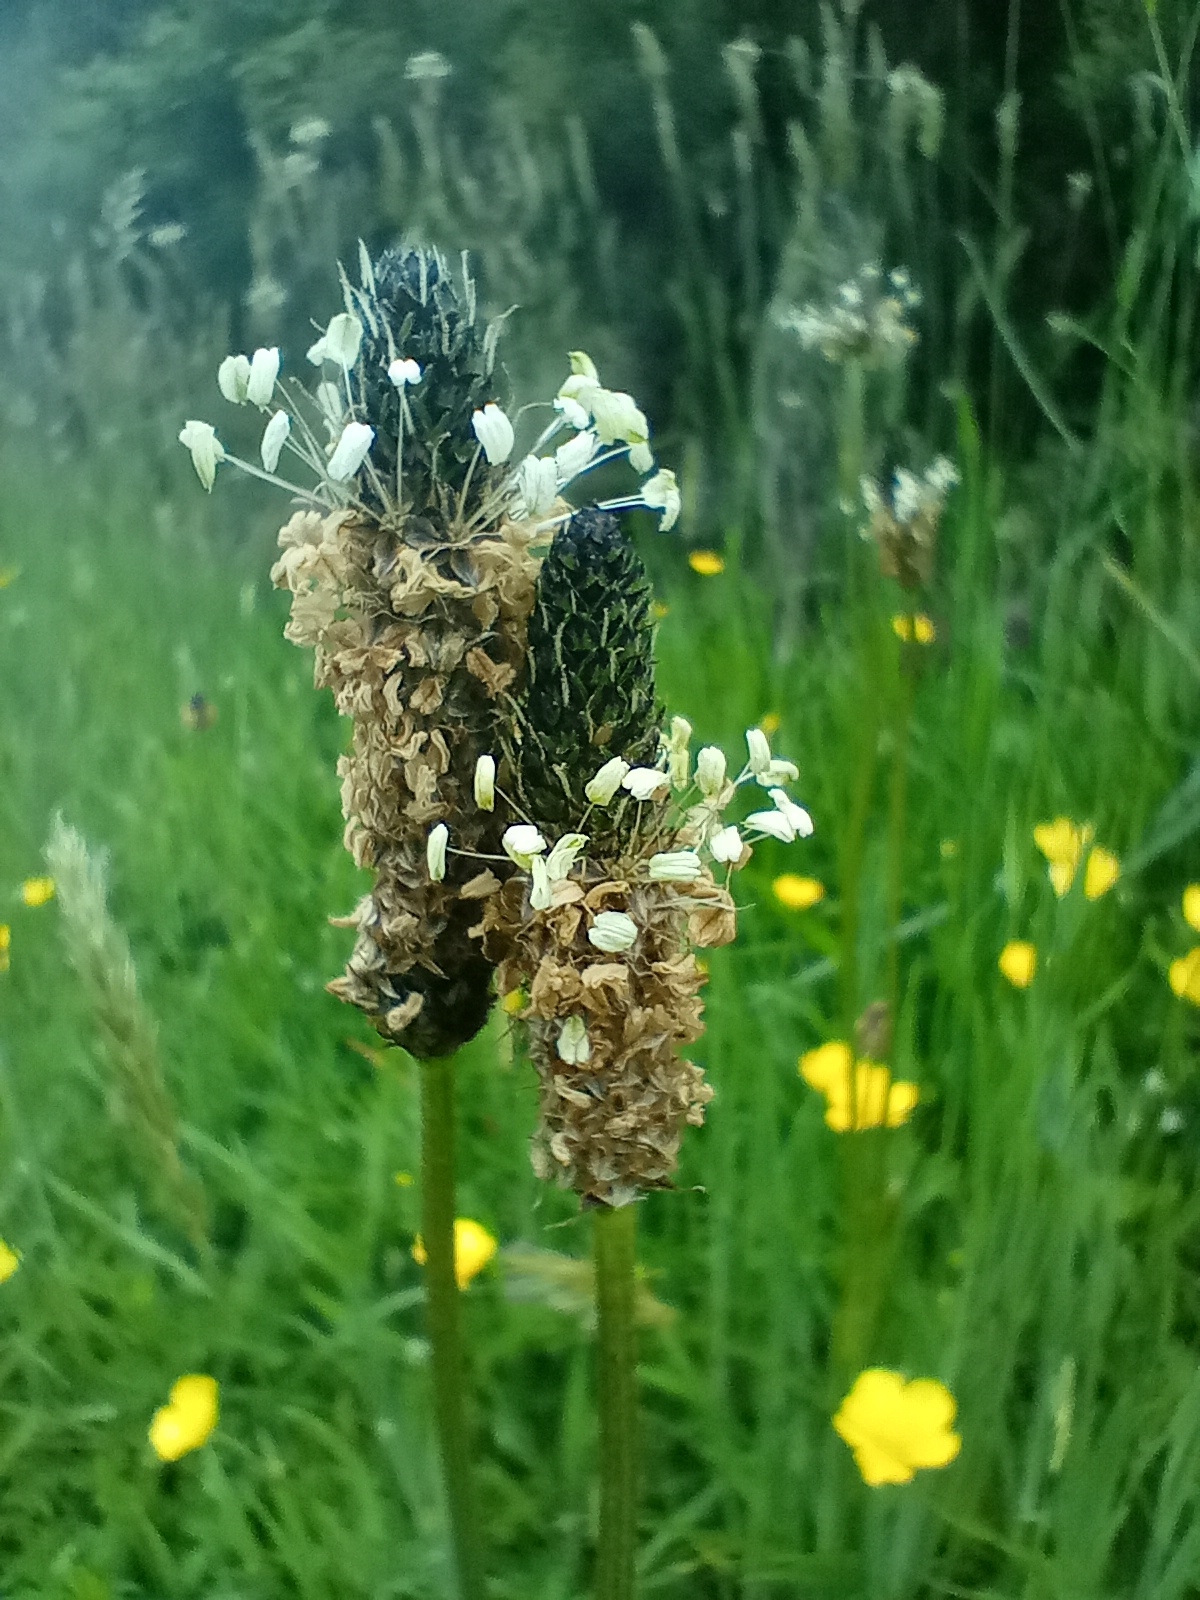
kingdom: Plantae
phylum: Tracheophyta
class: Magnoliopsida
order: Lamiales
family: Plantaginaceae
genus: Plantago
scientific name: Plantago lanceolata
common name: Ribwort plantain
